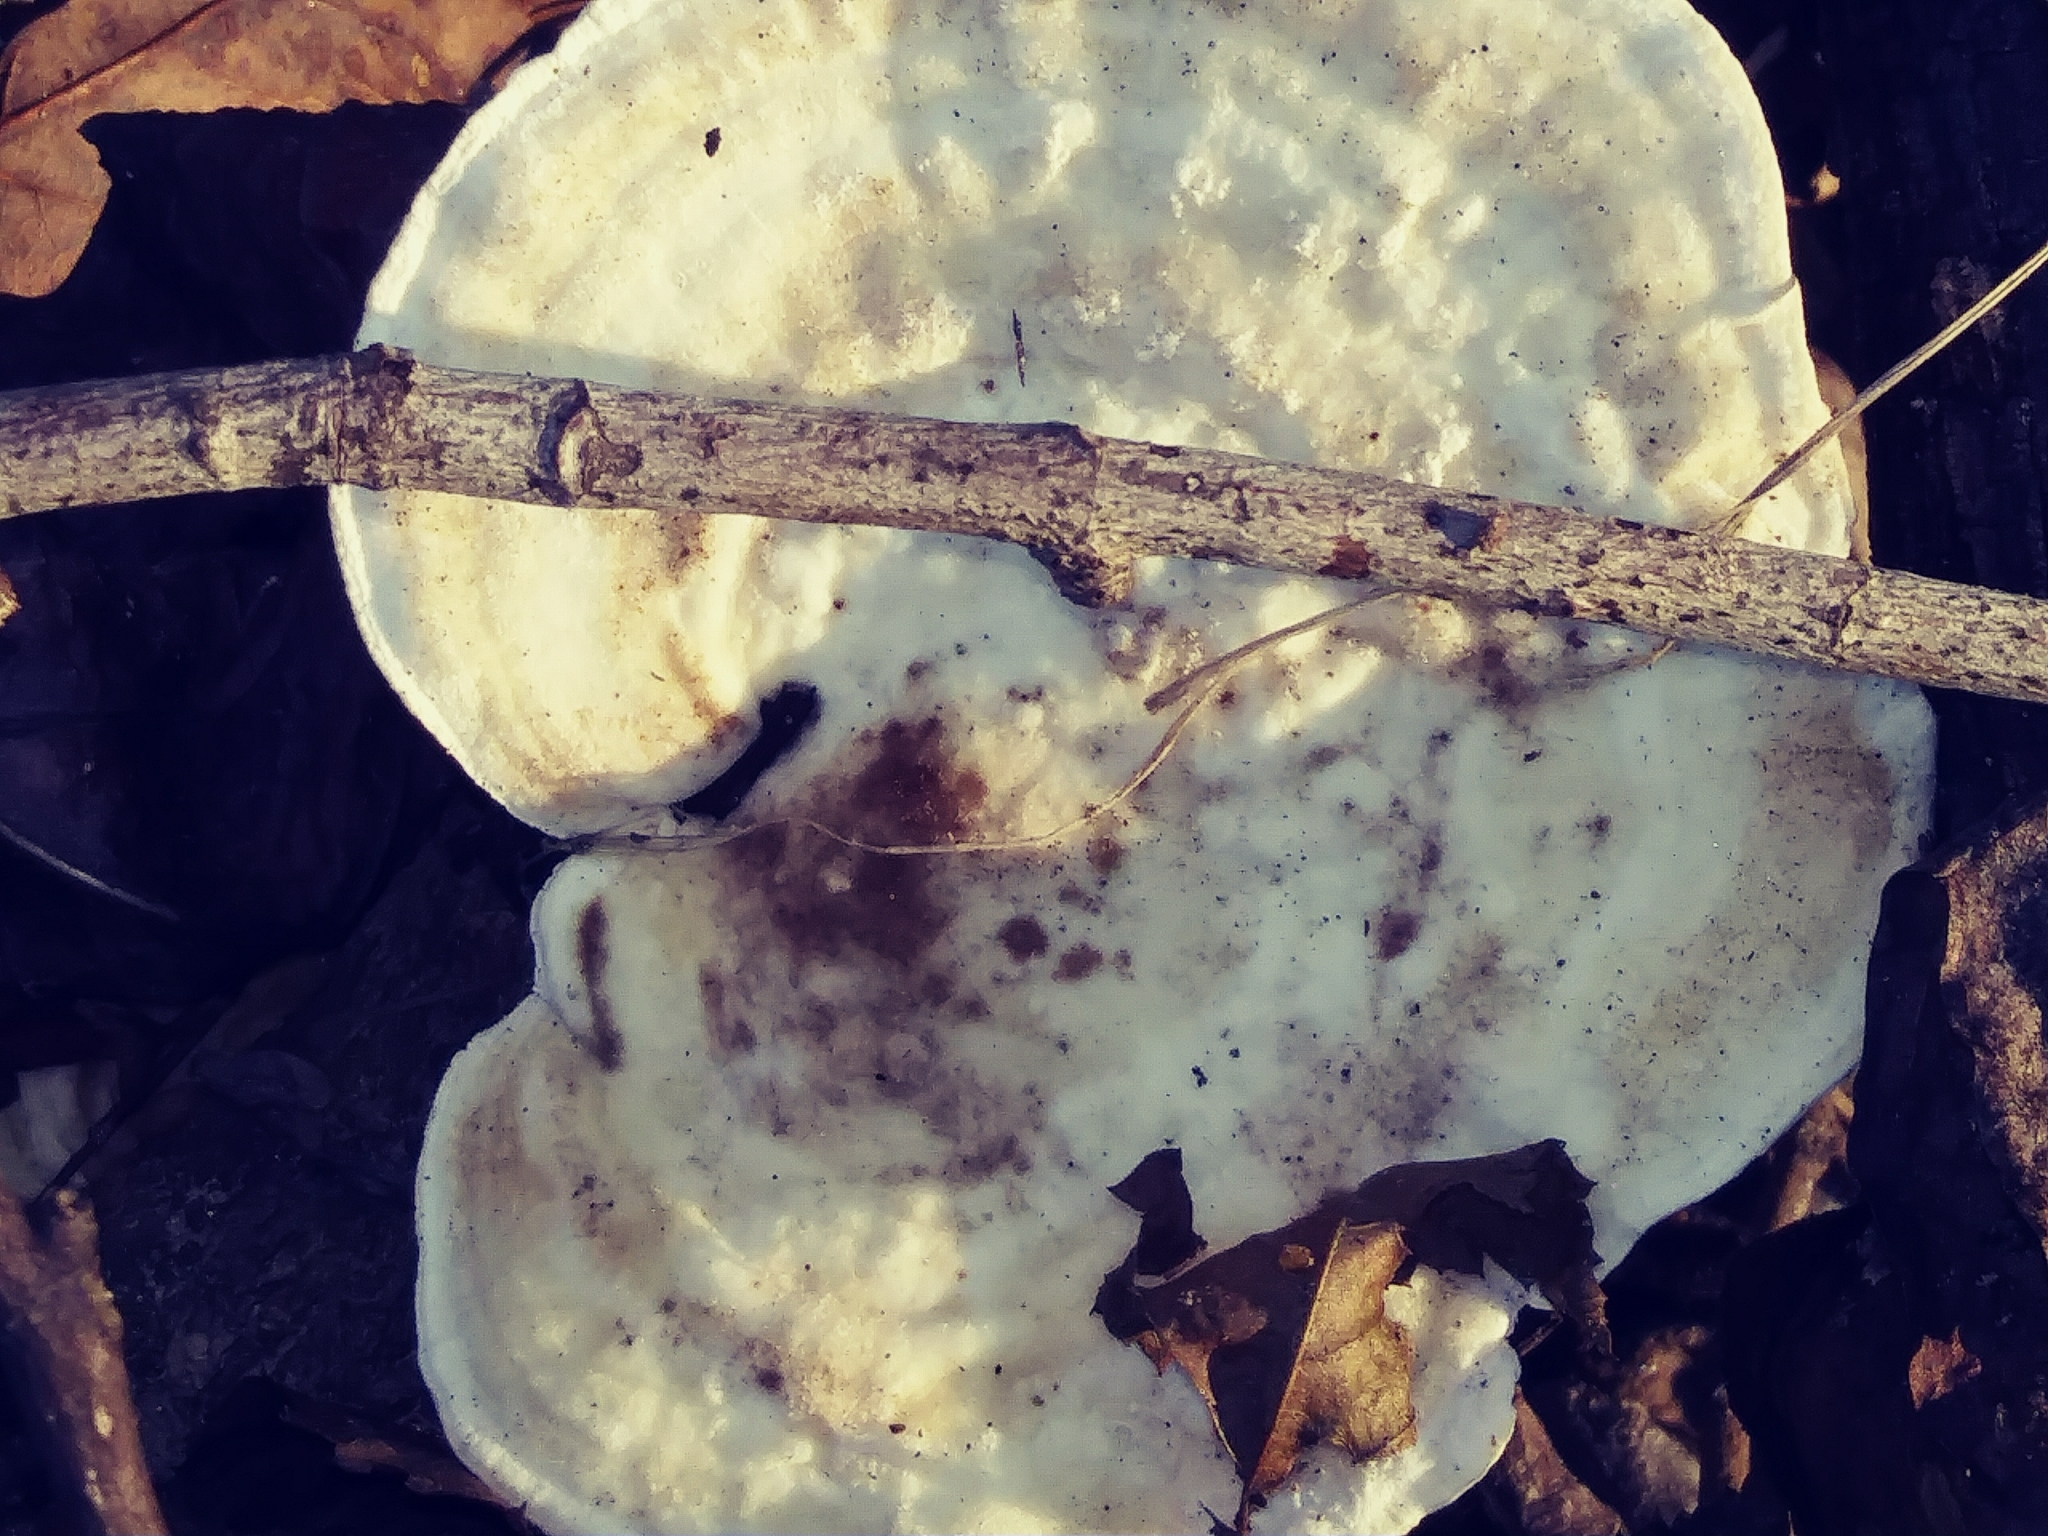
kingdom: Fungi
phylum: Basidiomycota
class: Agaricomycetes
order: Polyporales
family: Polyporaceae
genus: Trametes
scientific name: Trametes gibbosa
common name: Lumpy bracket
